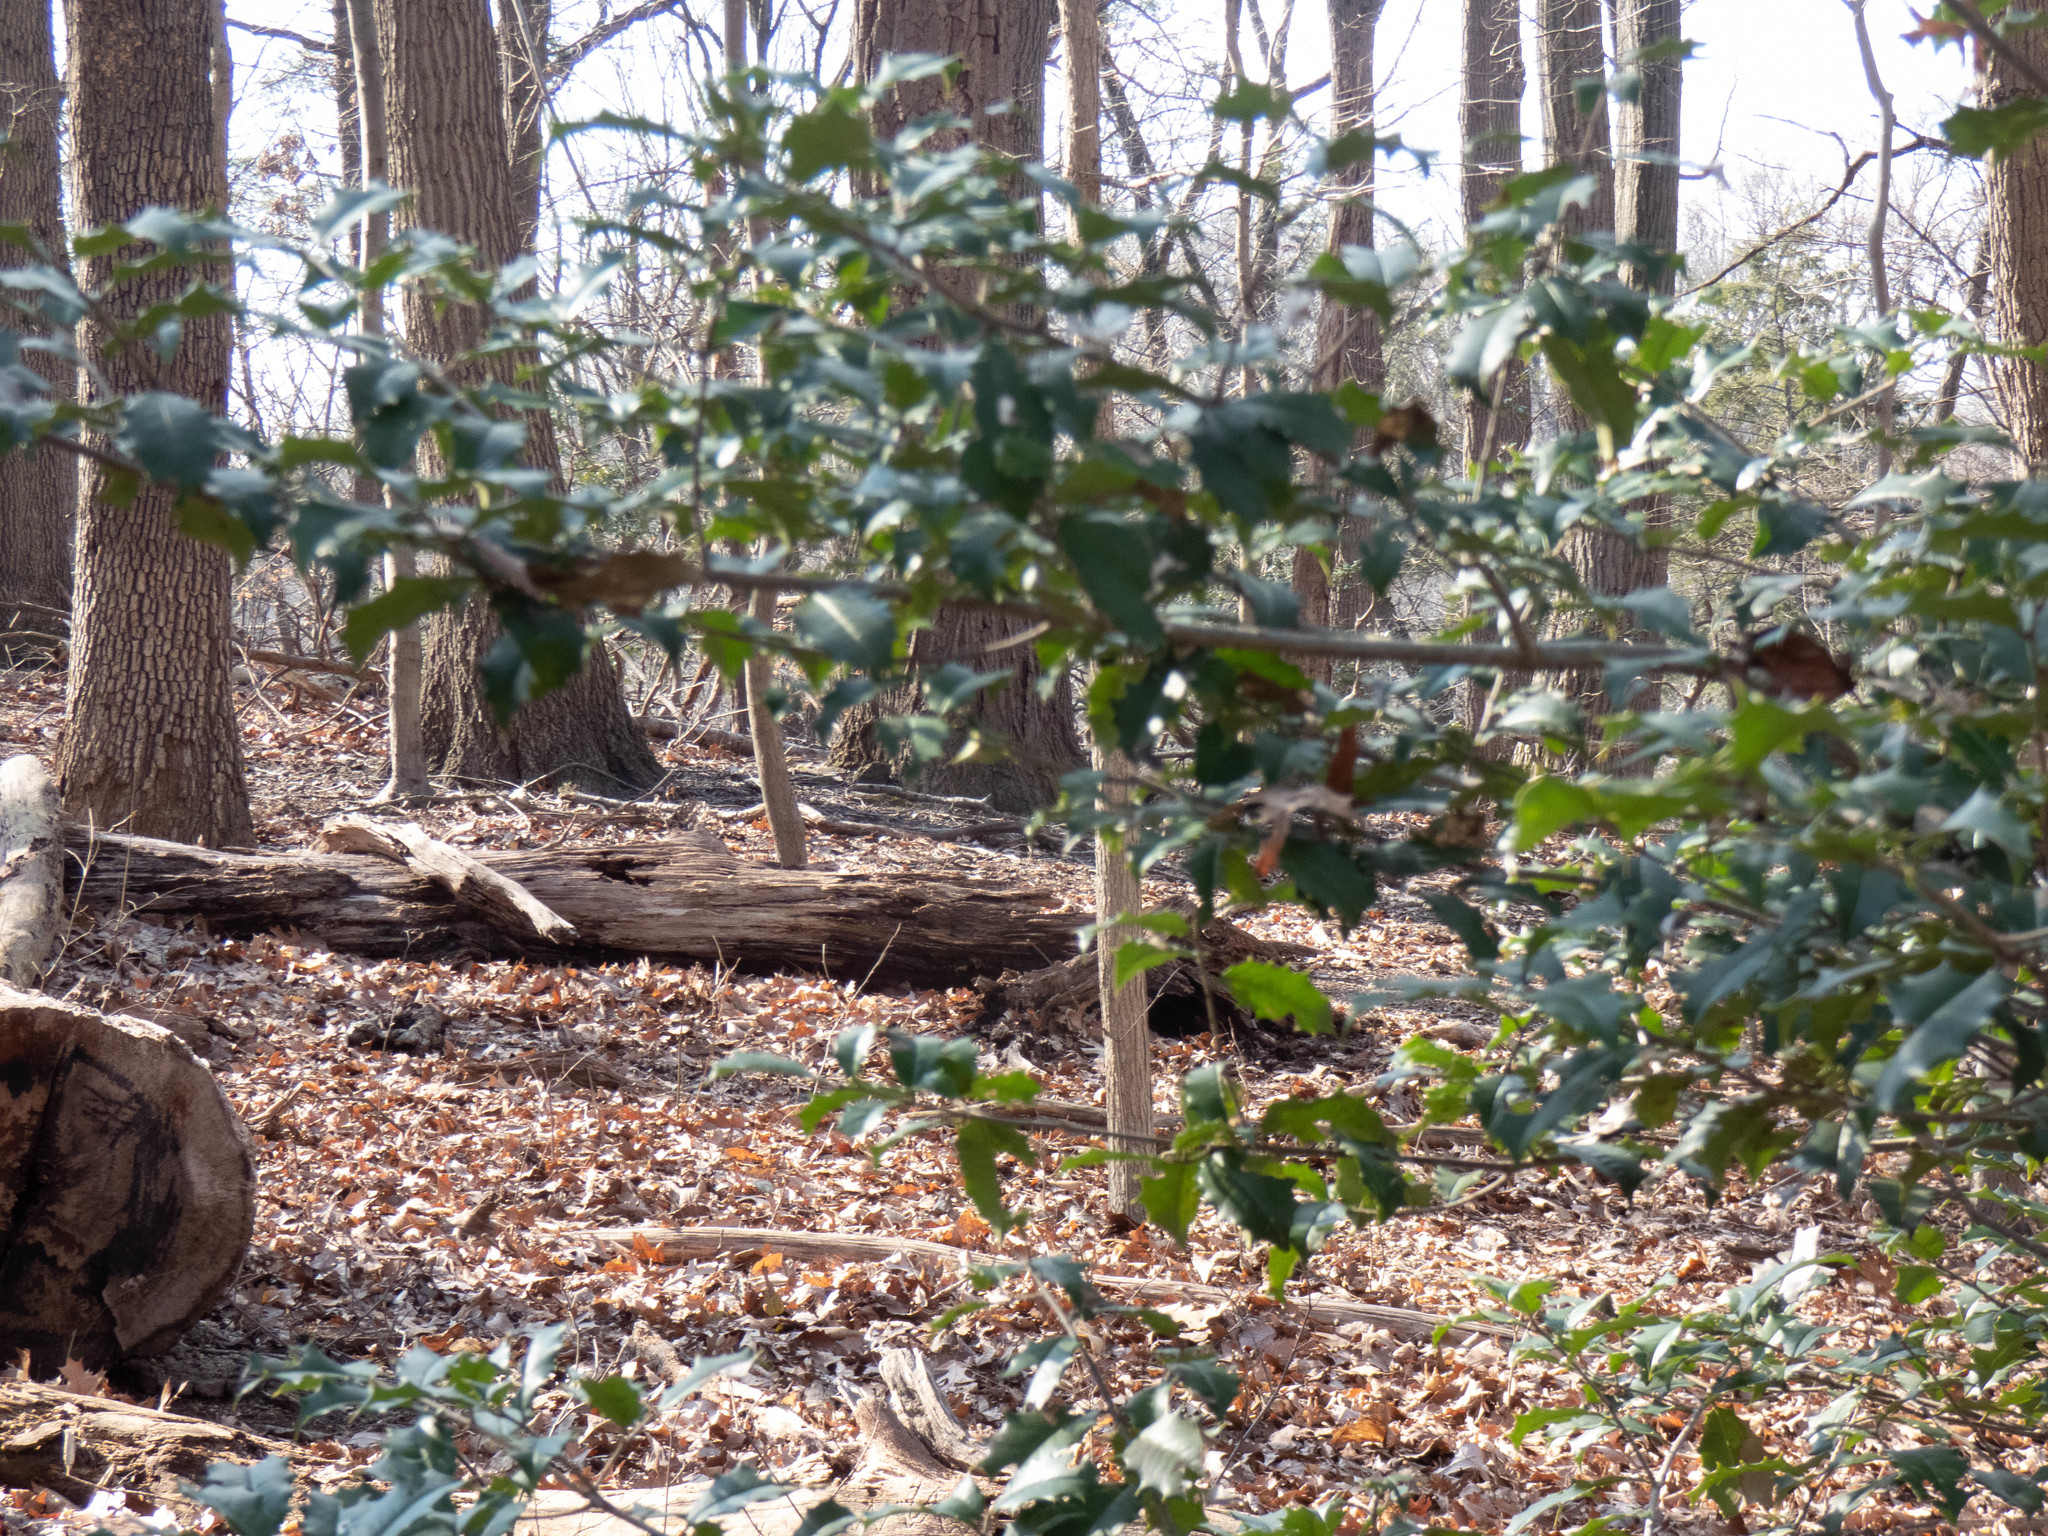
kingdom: Plantae
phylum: Tracheophyta
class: Magnoliopsida
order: Aquifoliales
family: Aquifoliaceae
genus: Ilex
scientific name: Ilex opaca
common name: American holly
